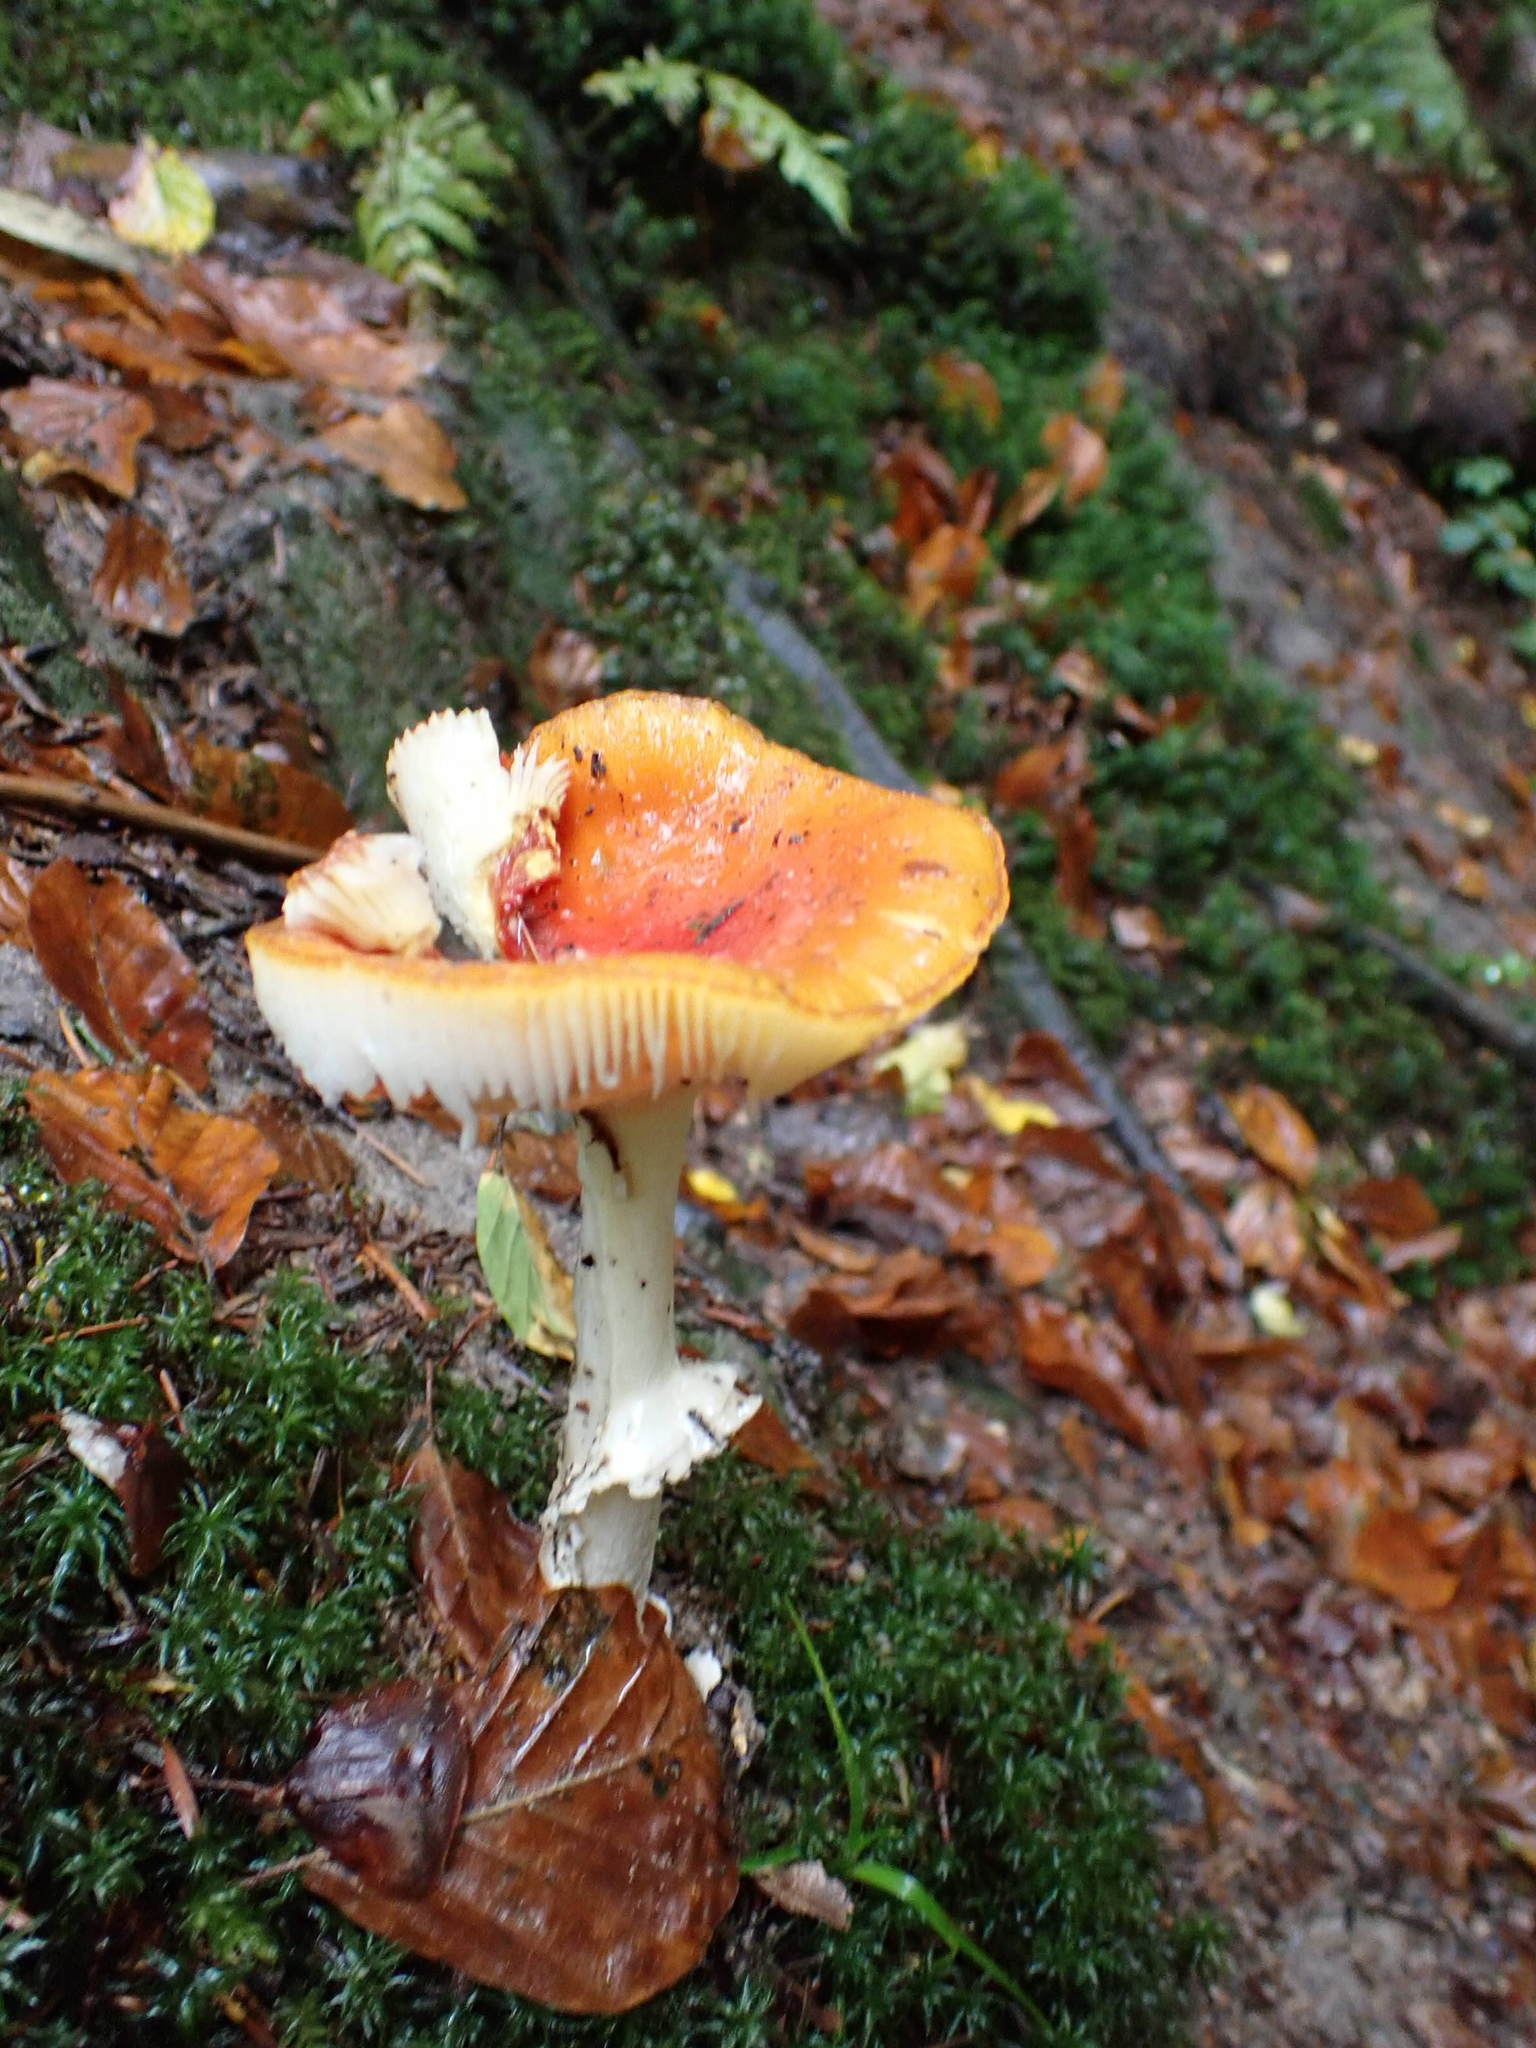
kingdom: Fungi
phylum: Basidiomycota
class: Agaricomycetes
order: Agaricales
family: Amanitaceae
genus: Amanita
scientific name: Amanita muscaria
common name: Fly agaric
